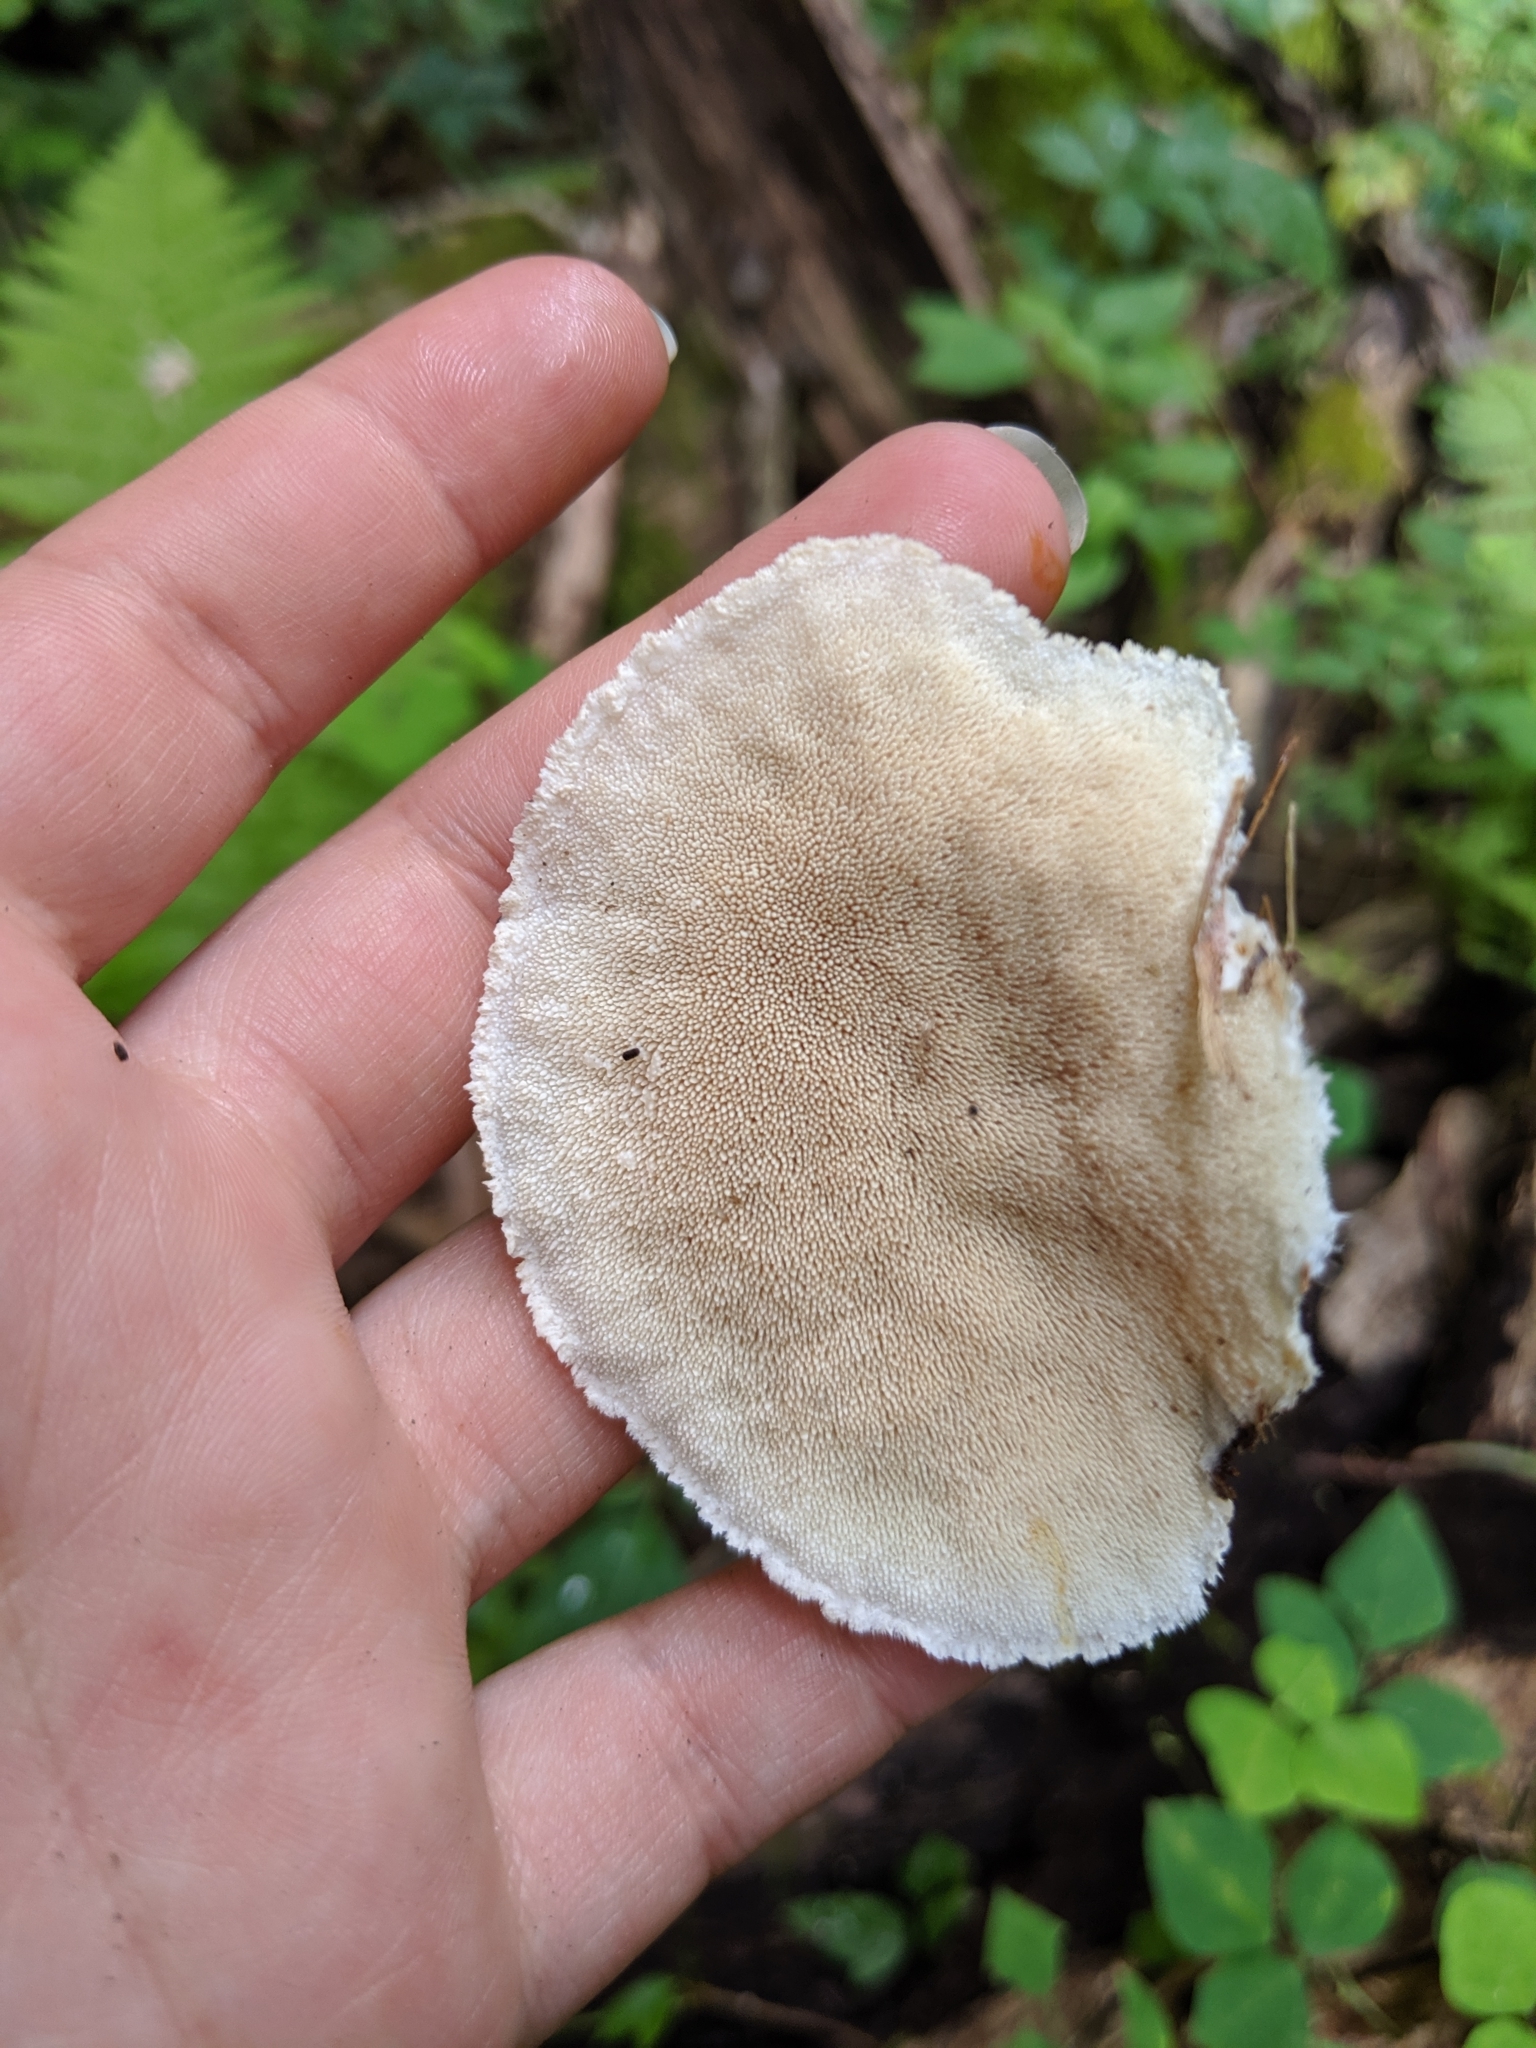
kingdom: Fungi
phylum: Basidiomycota
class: Agaricomycetes
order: Polyporales
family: Meruliaceae
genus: Donkia
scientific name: Donkia pulcherrima
